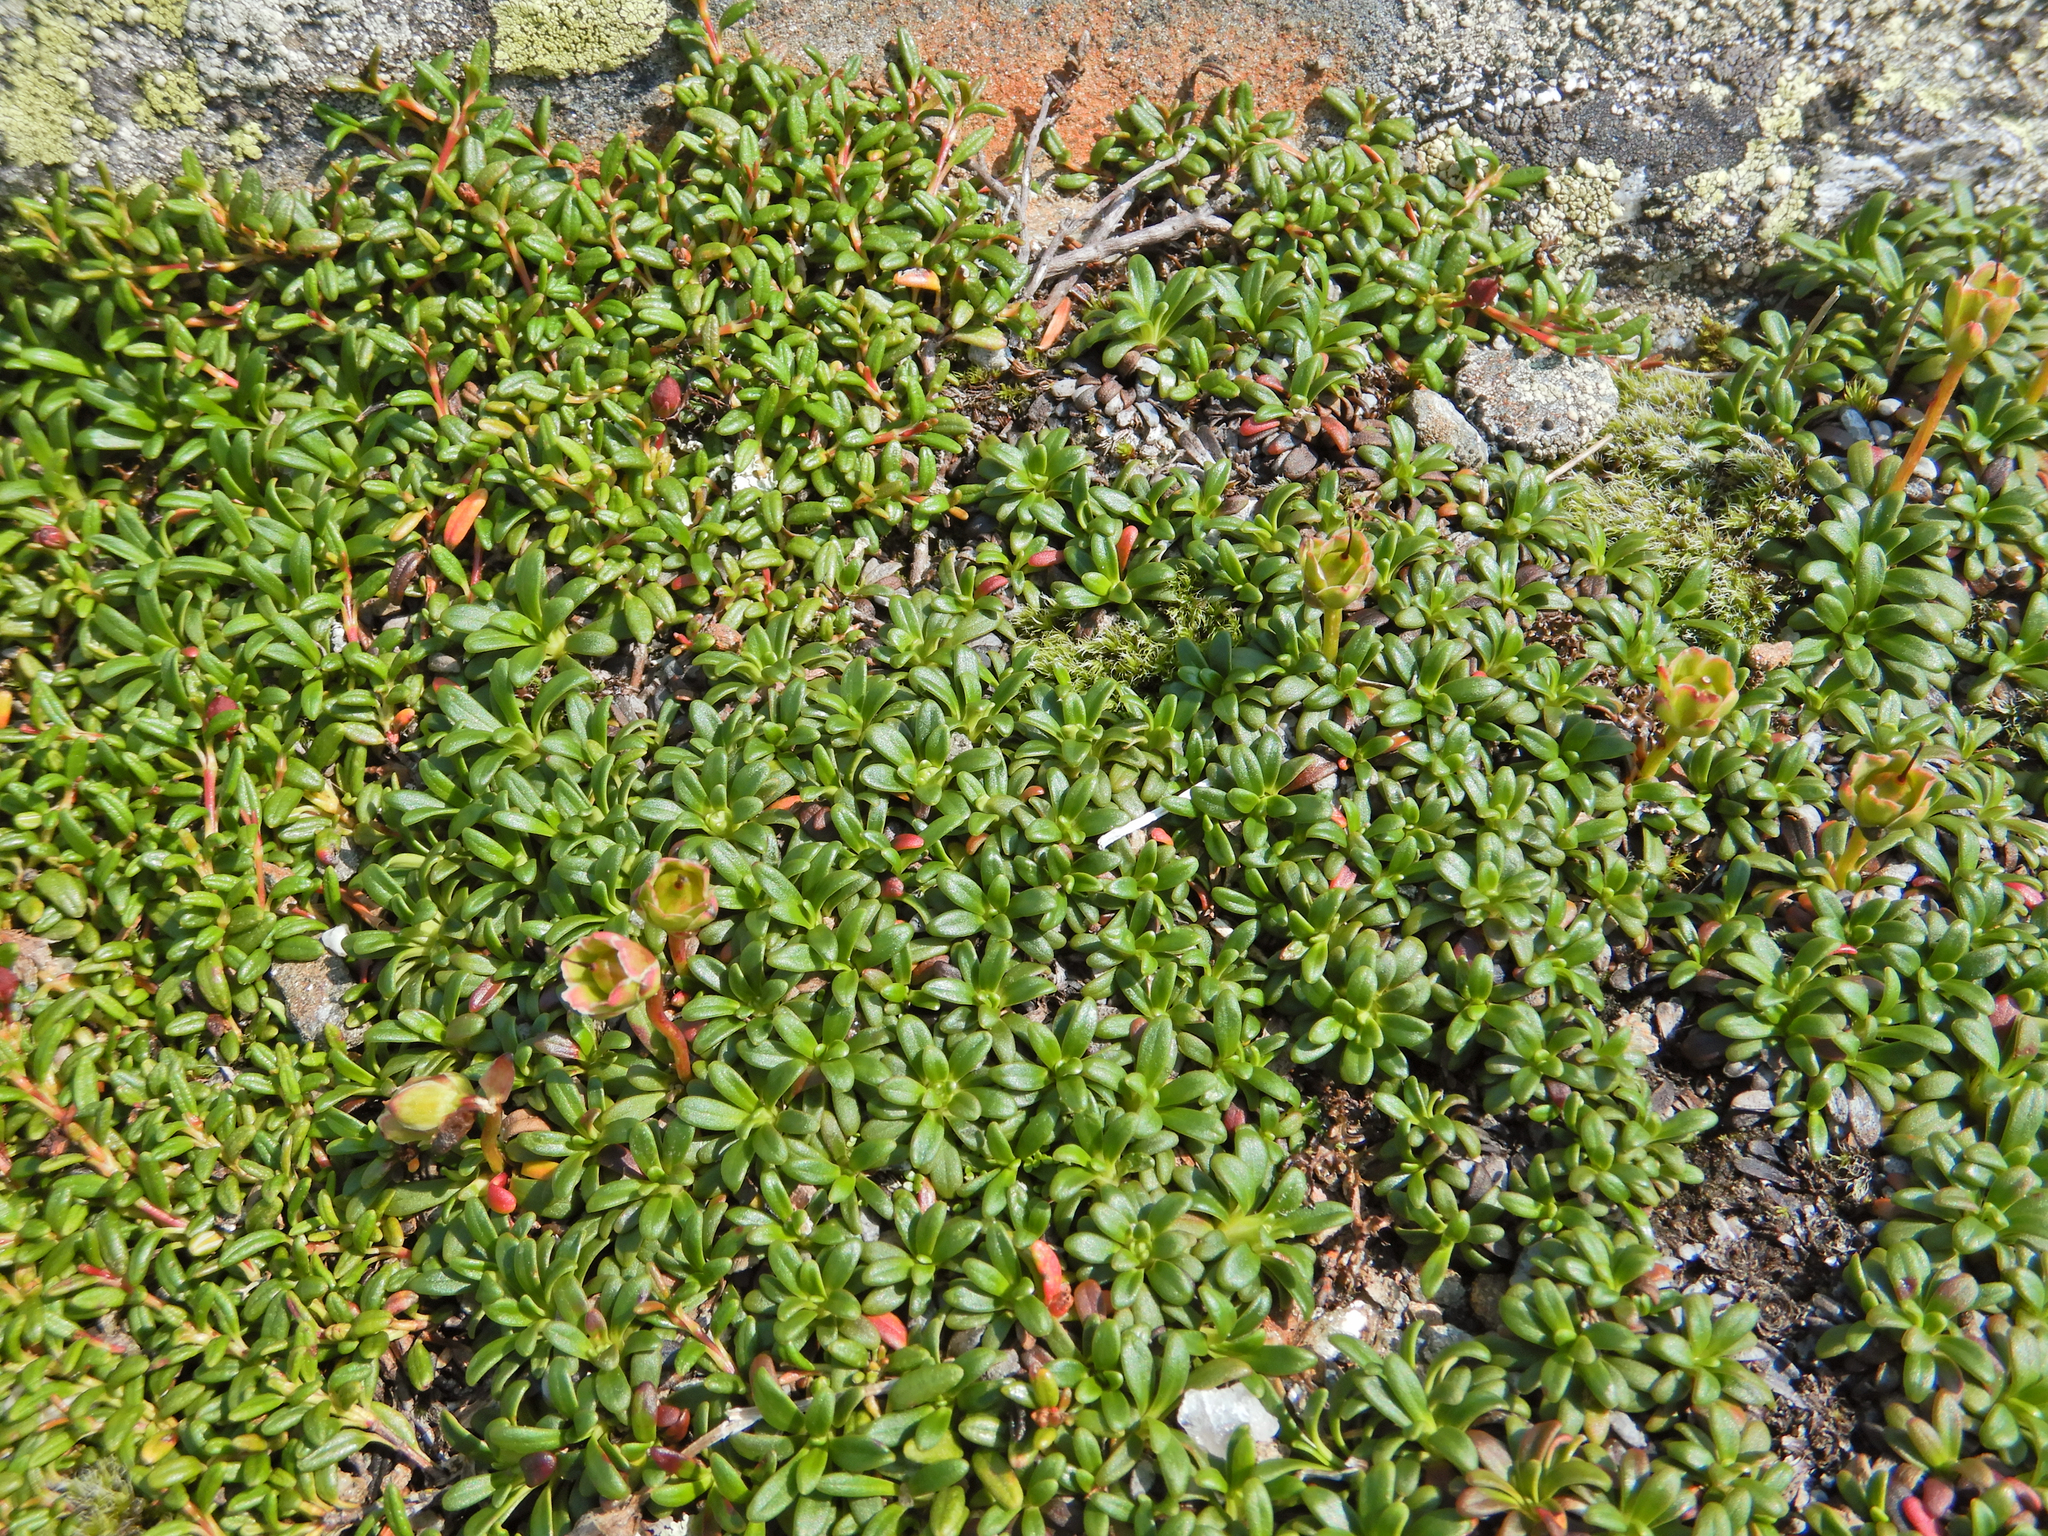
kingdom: Plantae
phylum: Tracheophyta
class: Magnoliopsida
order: Ericales
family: Diapensiaceae
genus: Diapensia
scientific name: Diapensia lapponica
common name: Diapensia
